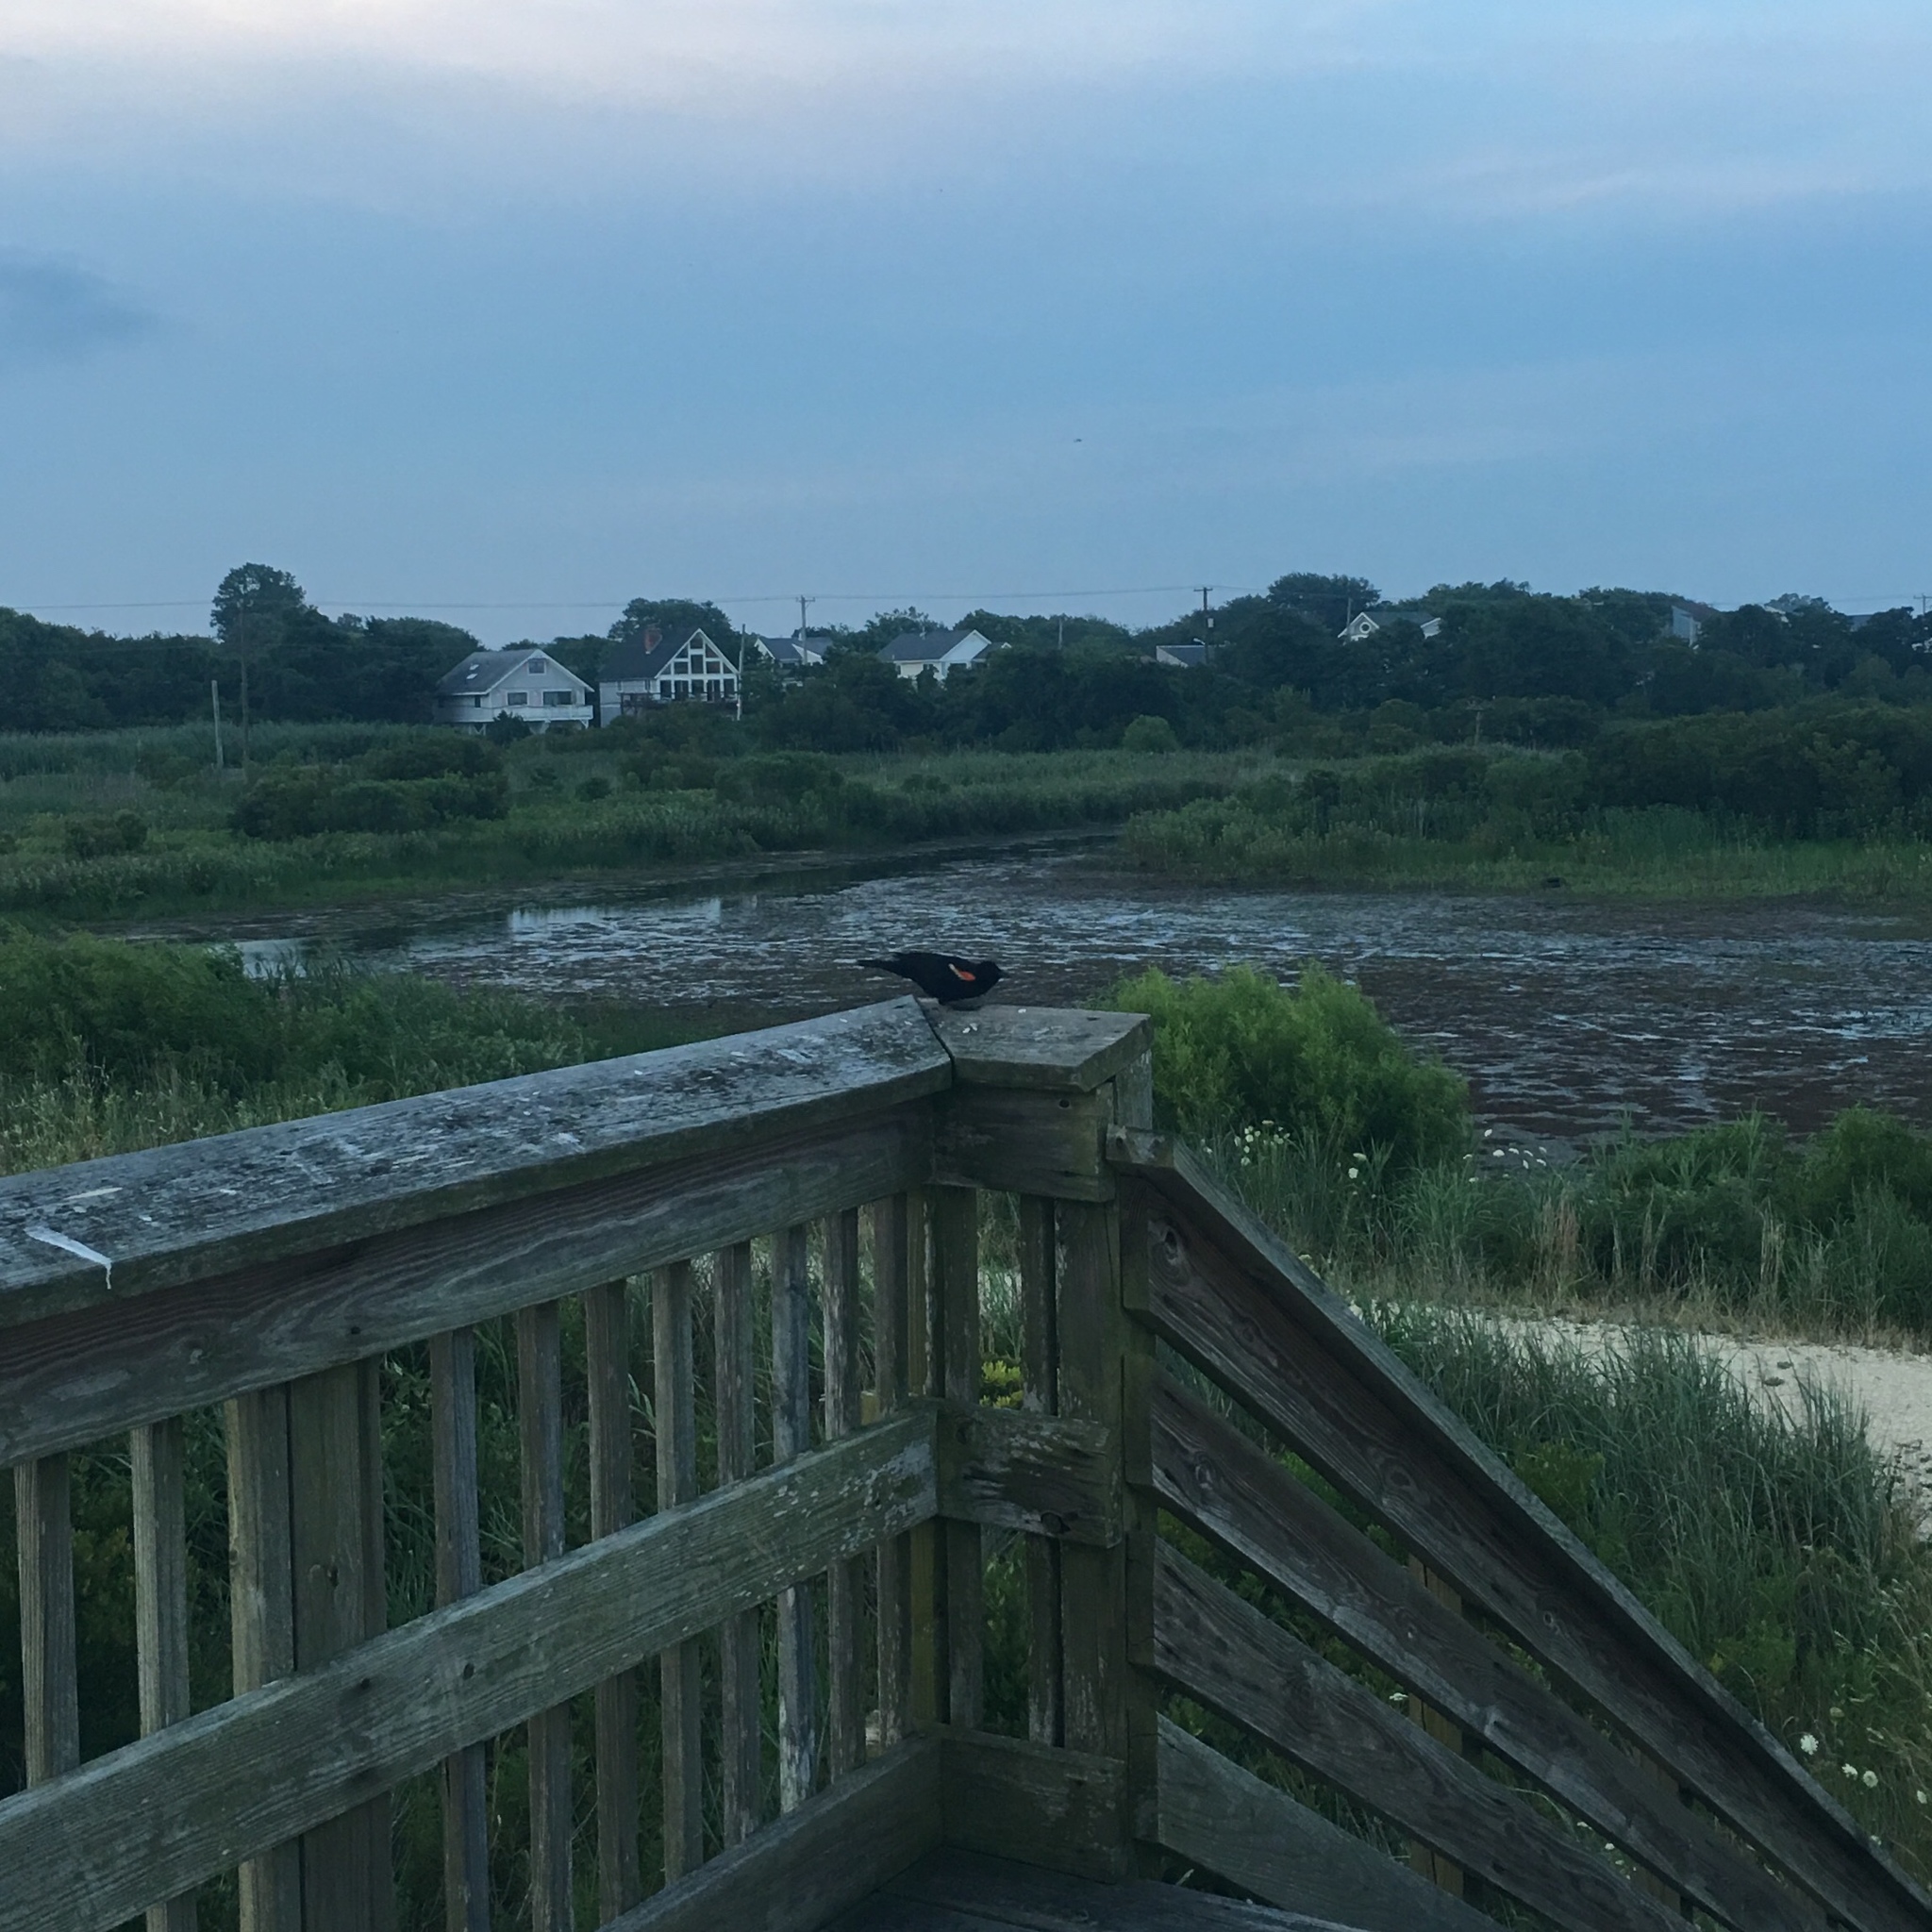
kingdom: Animalia
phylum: Chordata
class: Aves
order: Passeriformes
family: Icteridae
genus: Agelaius
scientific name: Agelaius phoeniceus
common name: Red-winged blackbird
